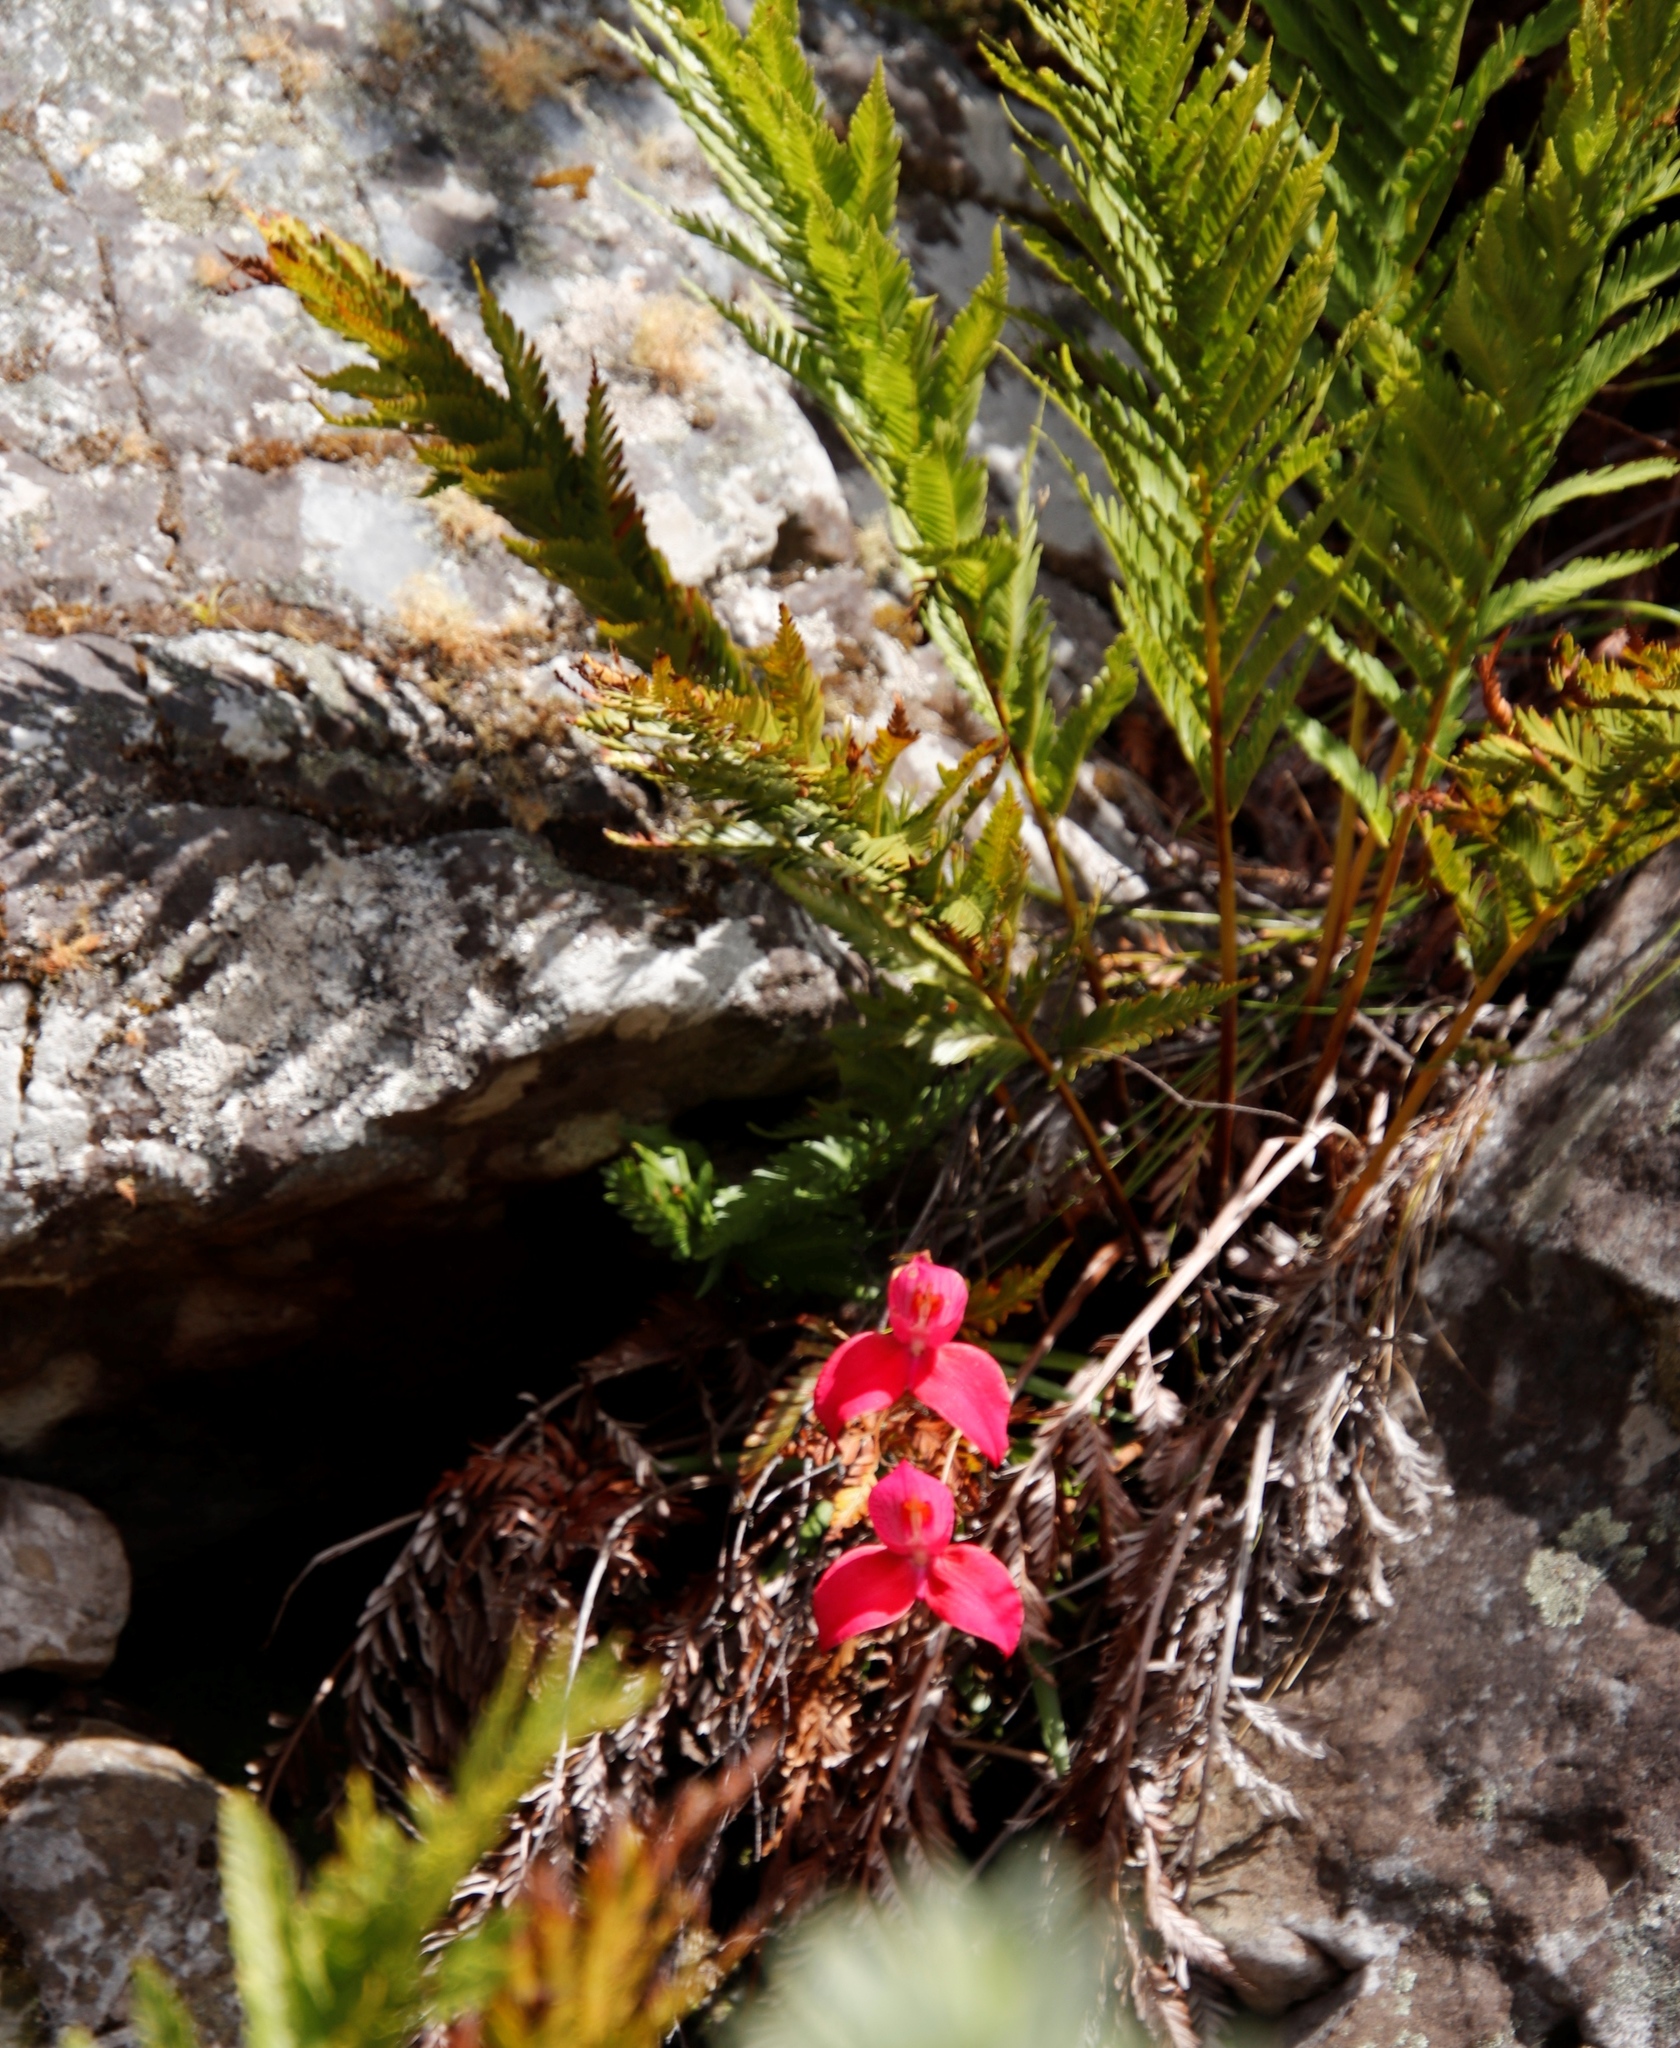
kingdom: Plantae
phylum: Tracheophyta
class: Polypodiopsida
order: Osmundales
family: Osmundaceae
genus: Todea
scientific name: Todea barbara
